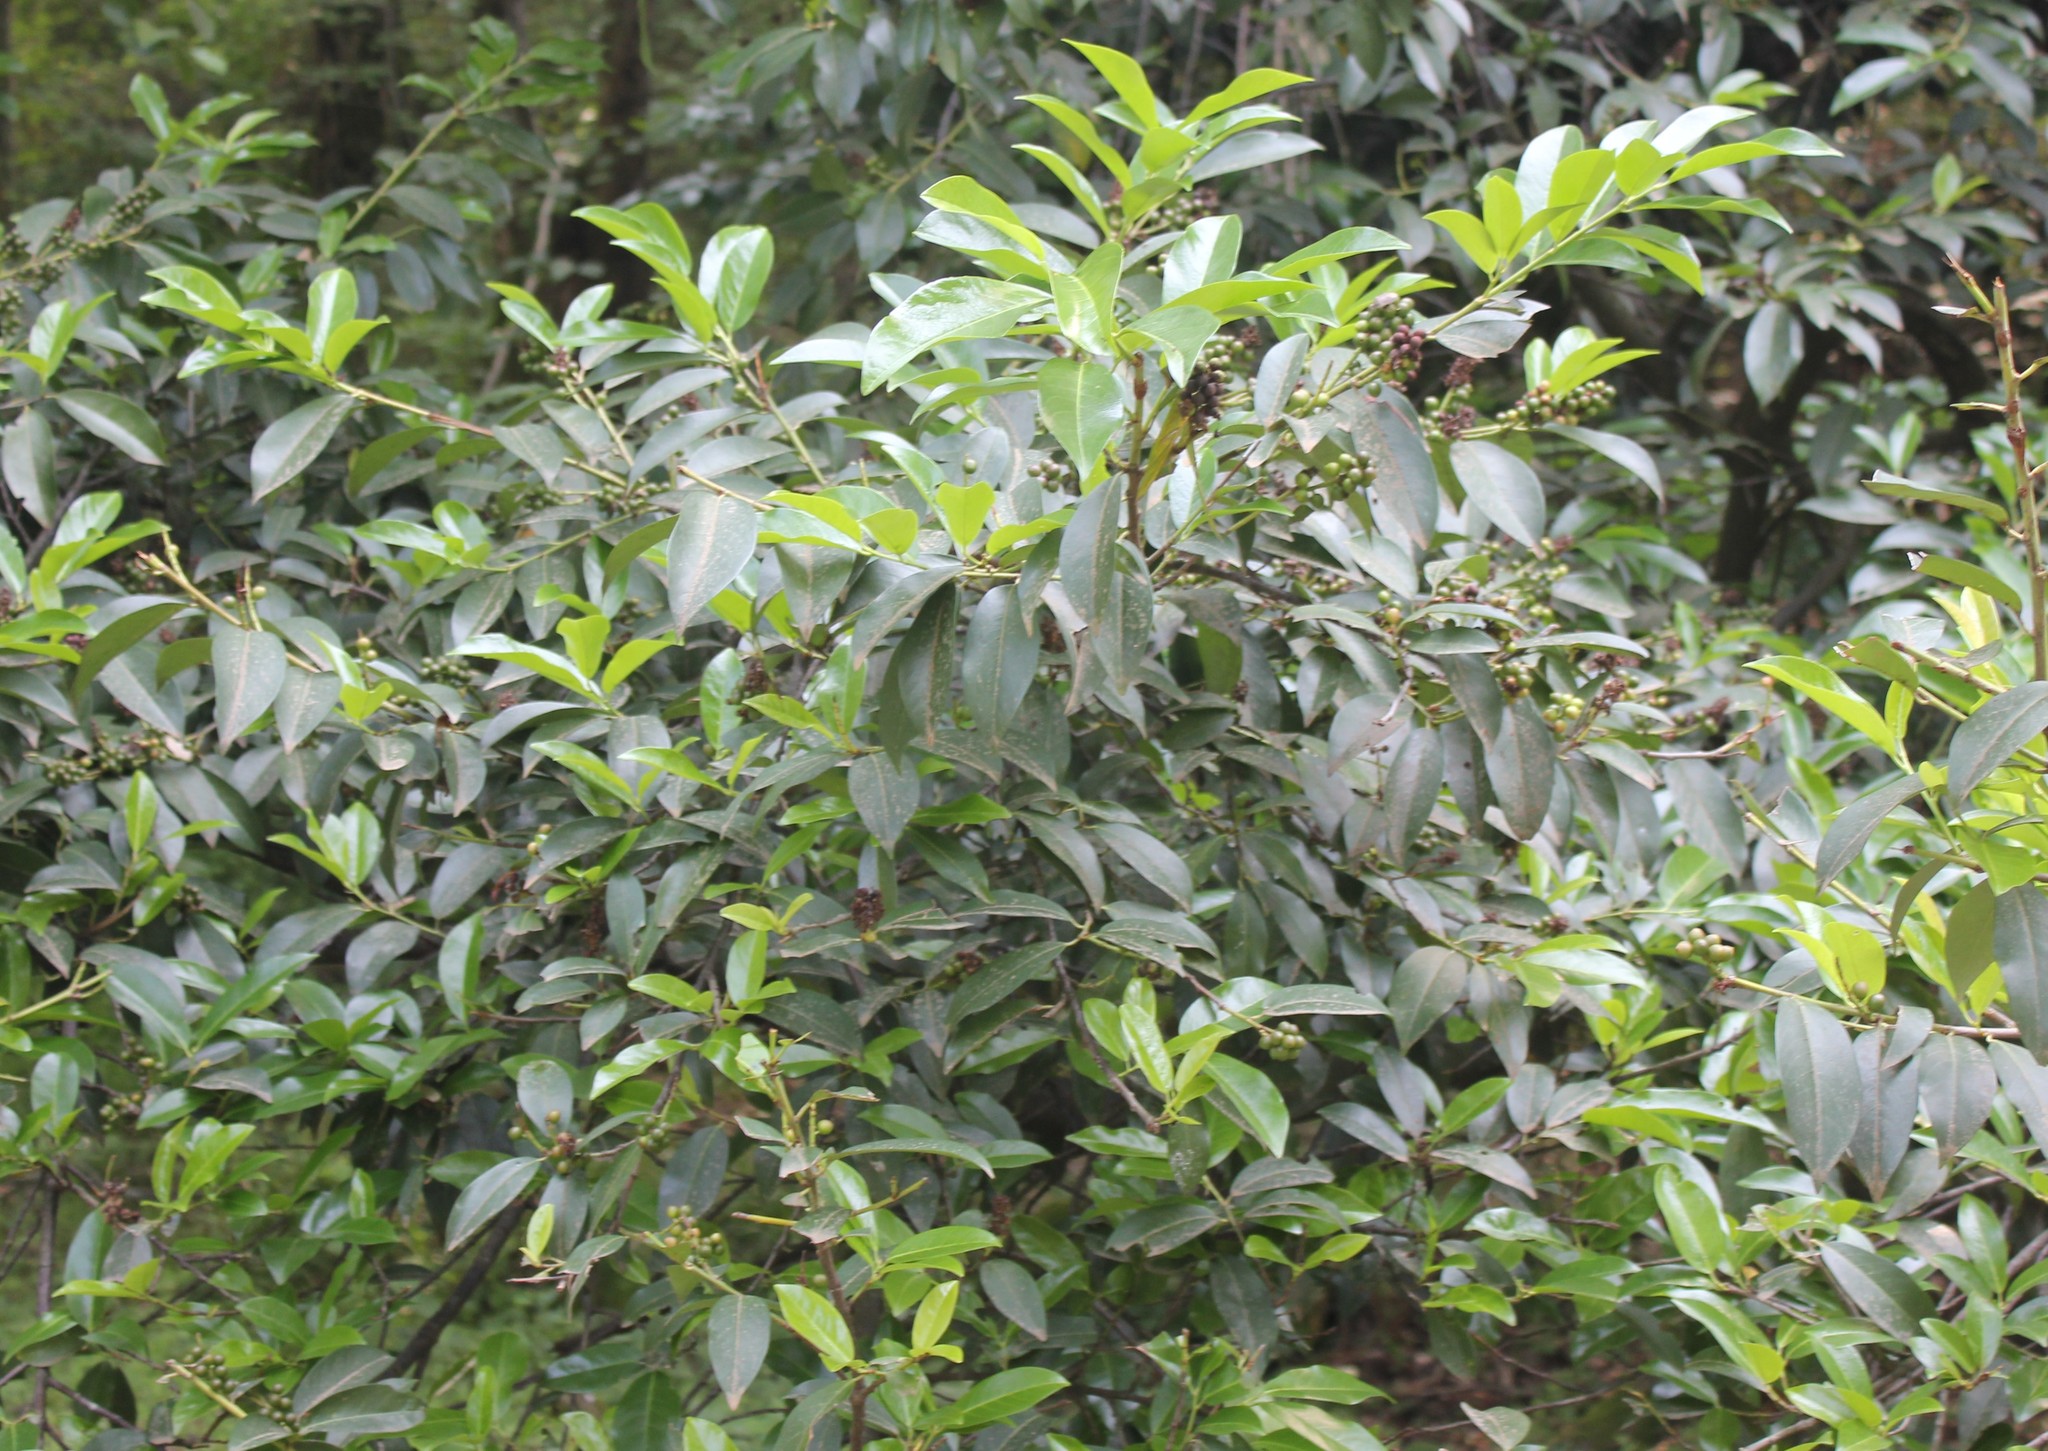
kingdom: Plantae
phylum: Tracheophyta
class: Magnoliopsida
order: Rosales
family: Rosaceae
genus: Prunus
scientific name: Prunus laurocerasus
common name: Cherry laurel
